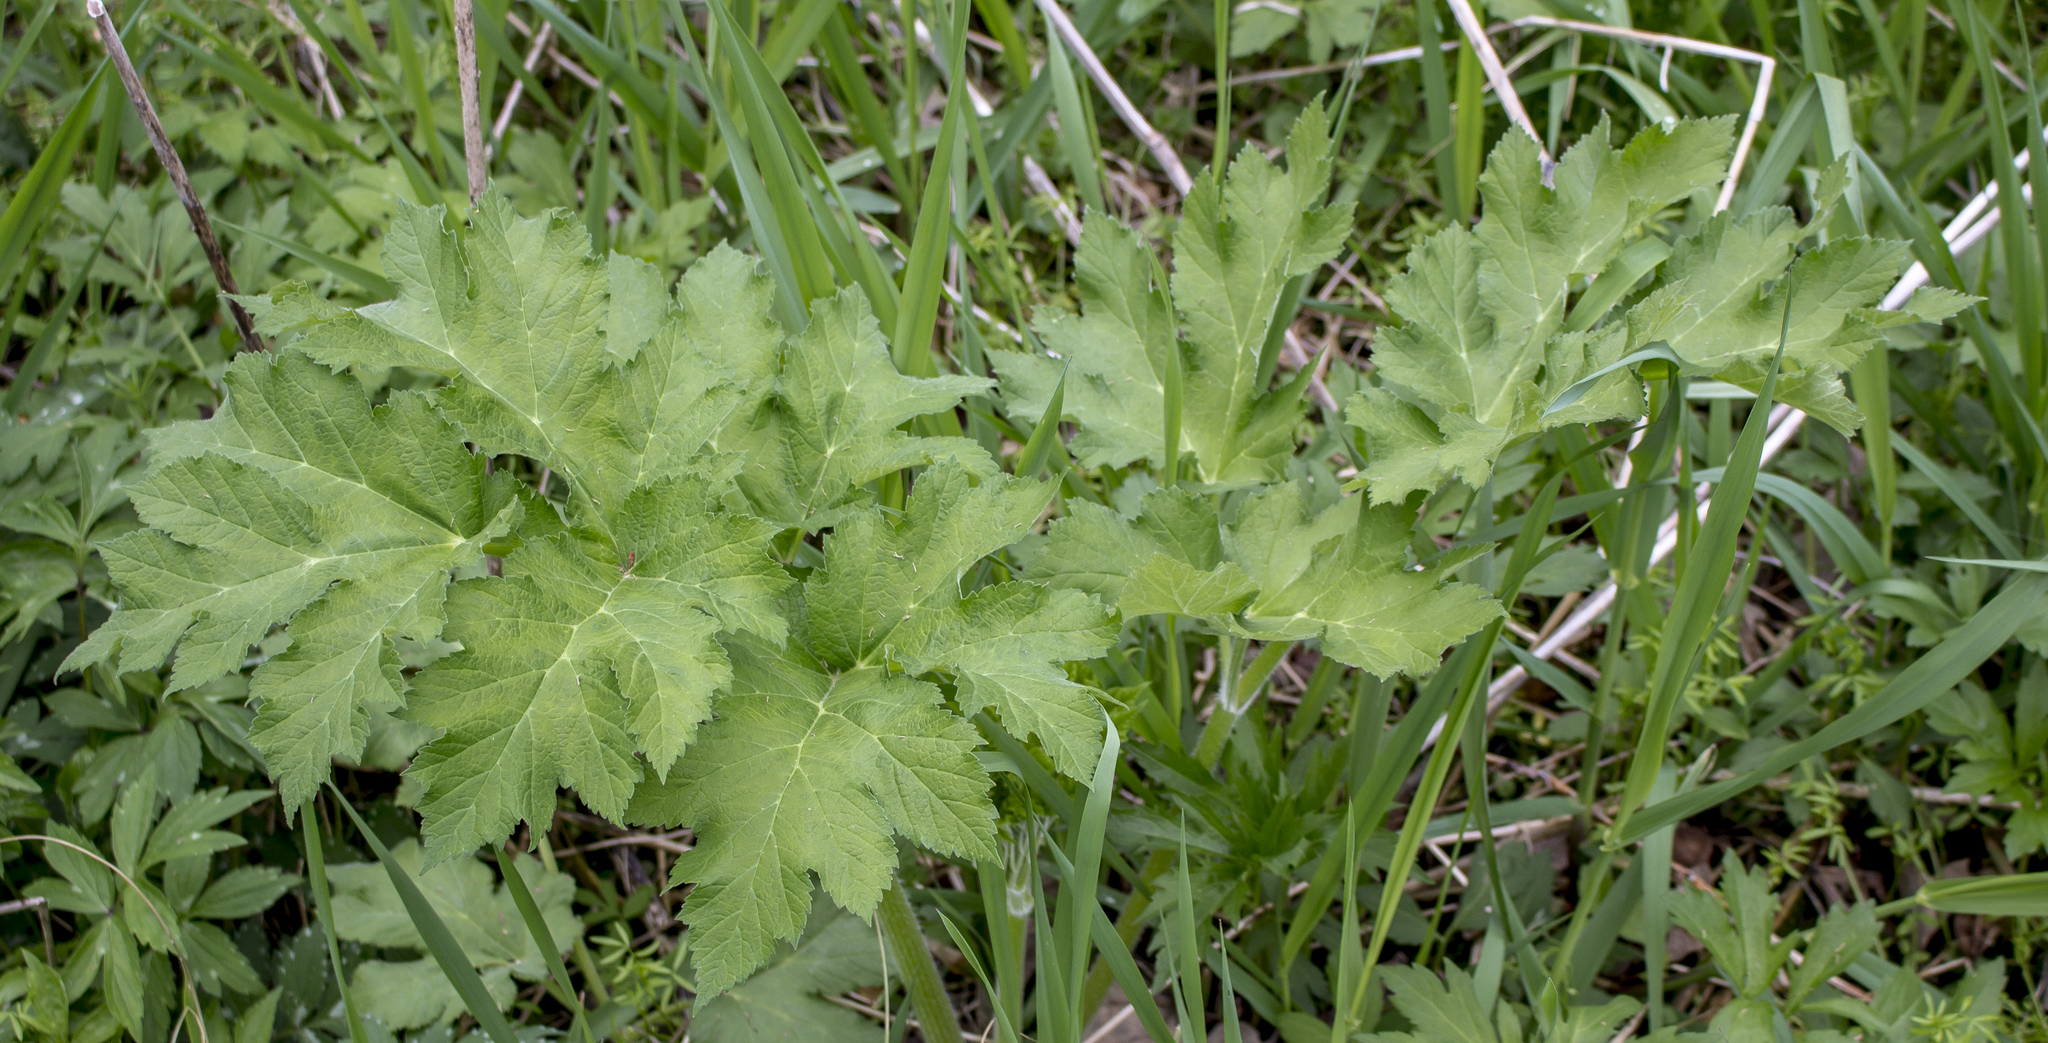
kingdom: Plantae
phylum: Tracheophyta
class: Magnoliopsida
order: Apiales
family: Apiaceae
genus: Heracleum
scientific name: Heracleum maximum
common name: American cow parsnip
